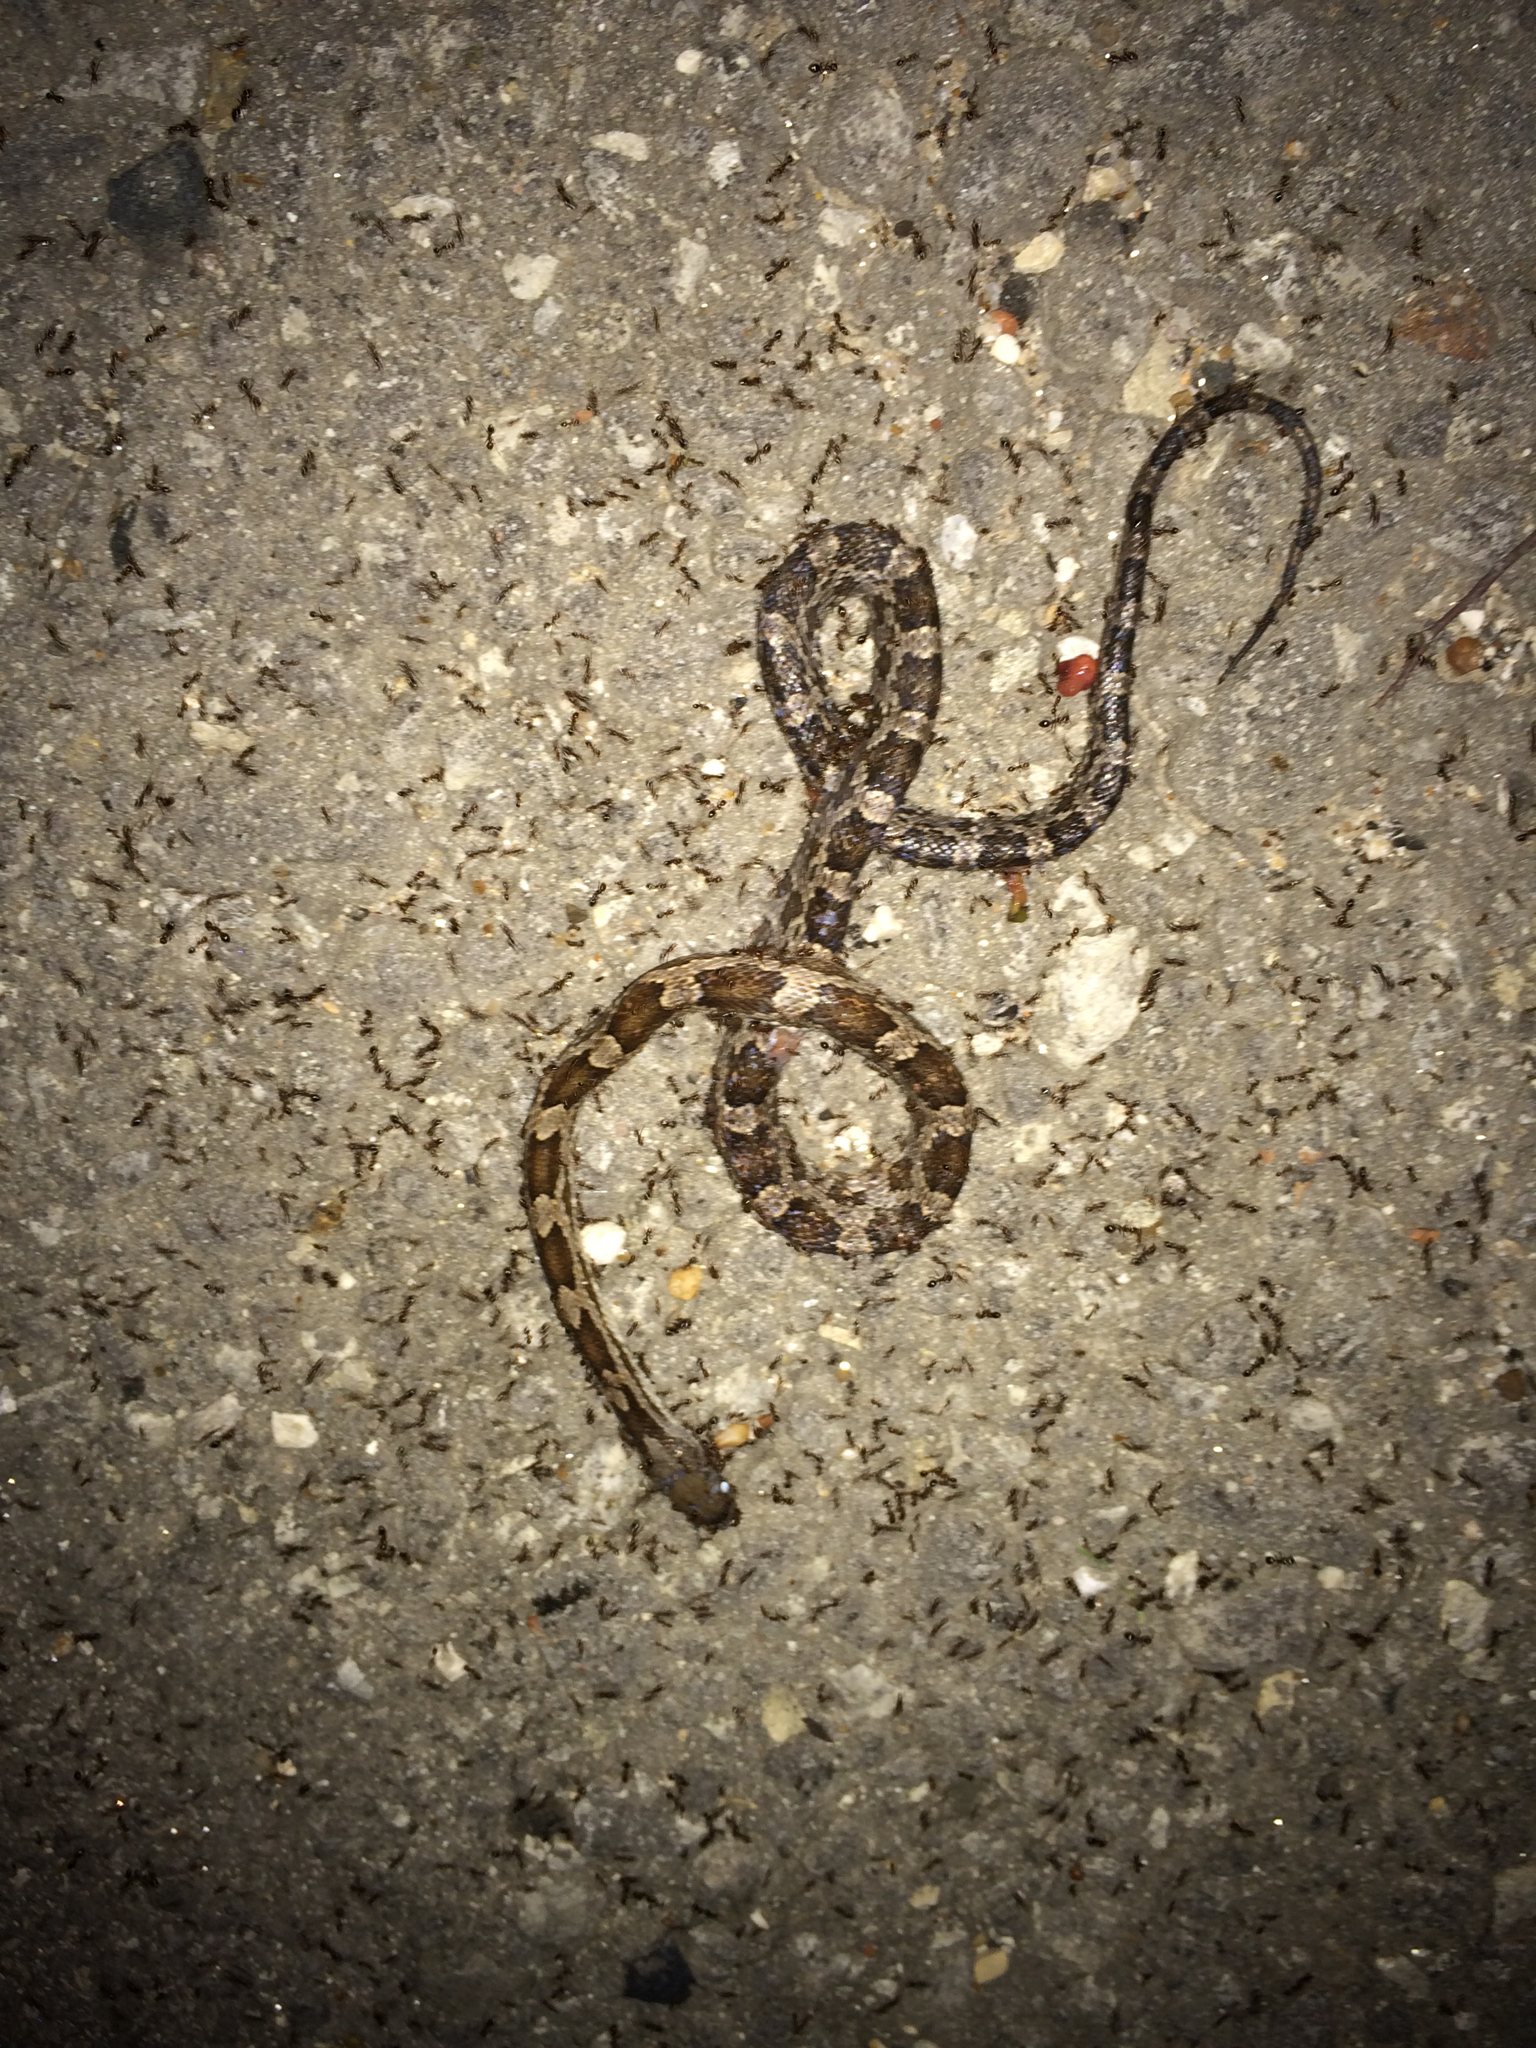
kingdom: Animalia
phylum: Chordata
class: Squamata
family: Colubridae
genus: Pantherophis
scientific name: Pantherophis obsoletus
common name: Black rat snake
